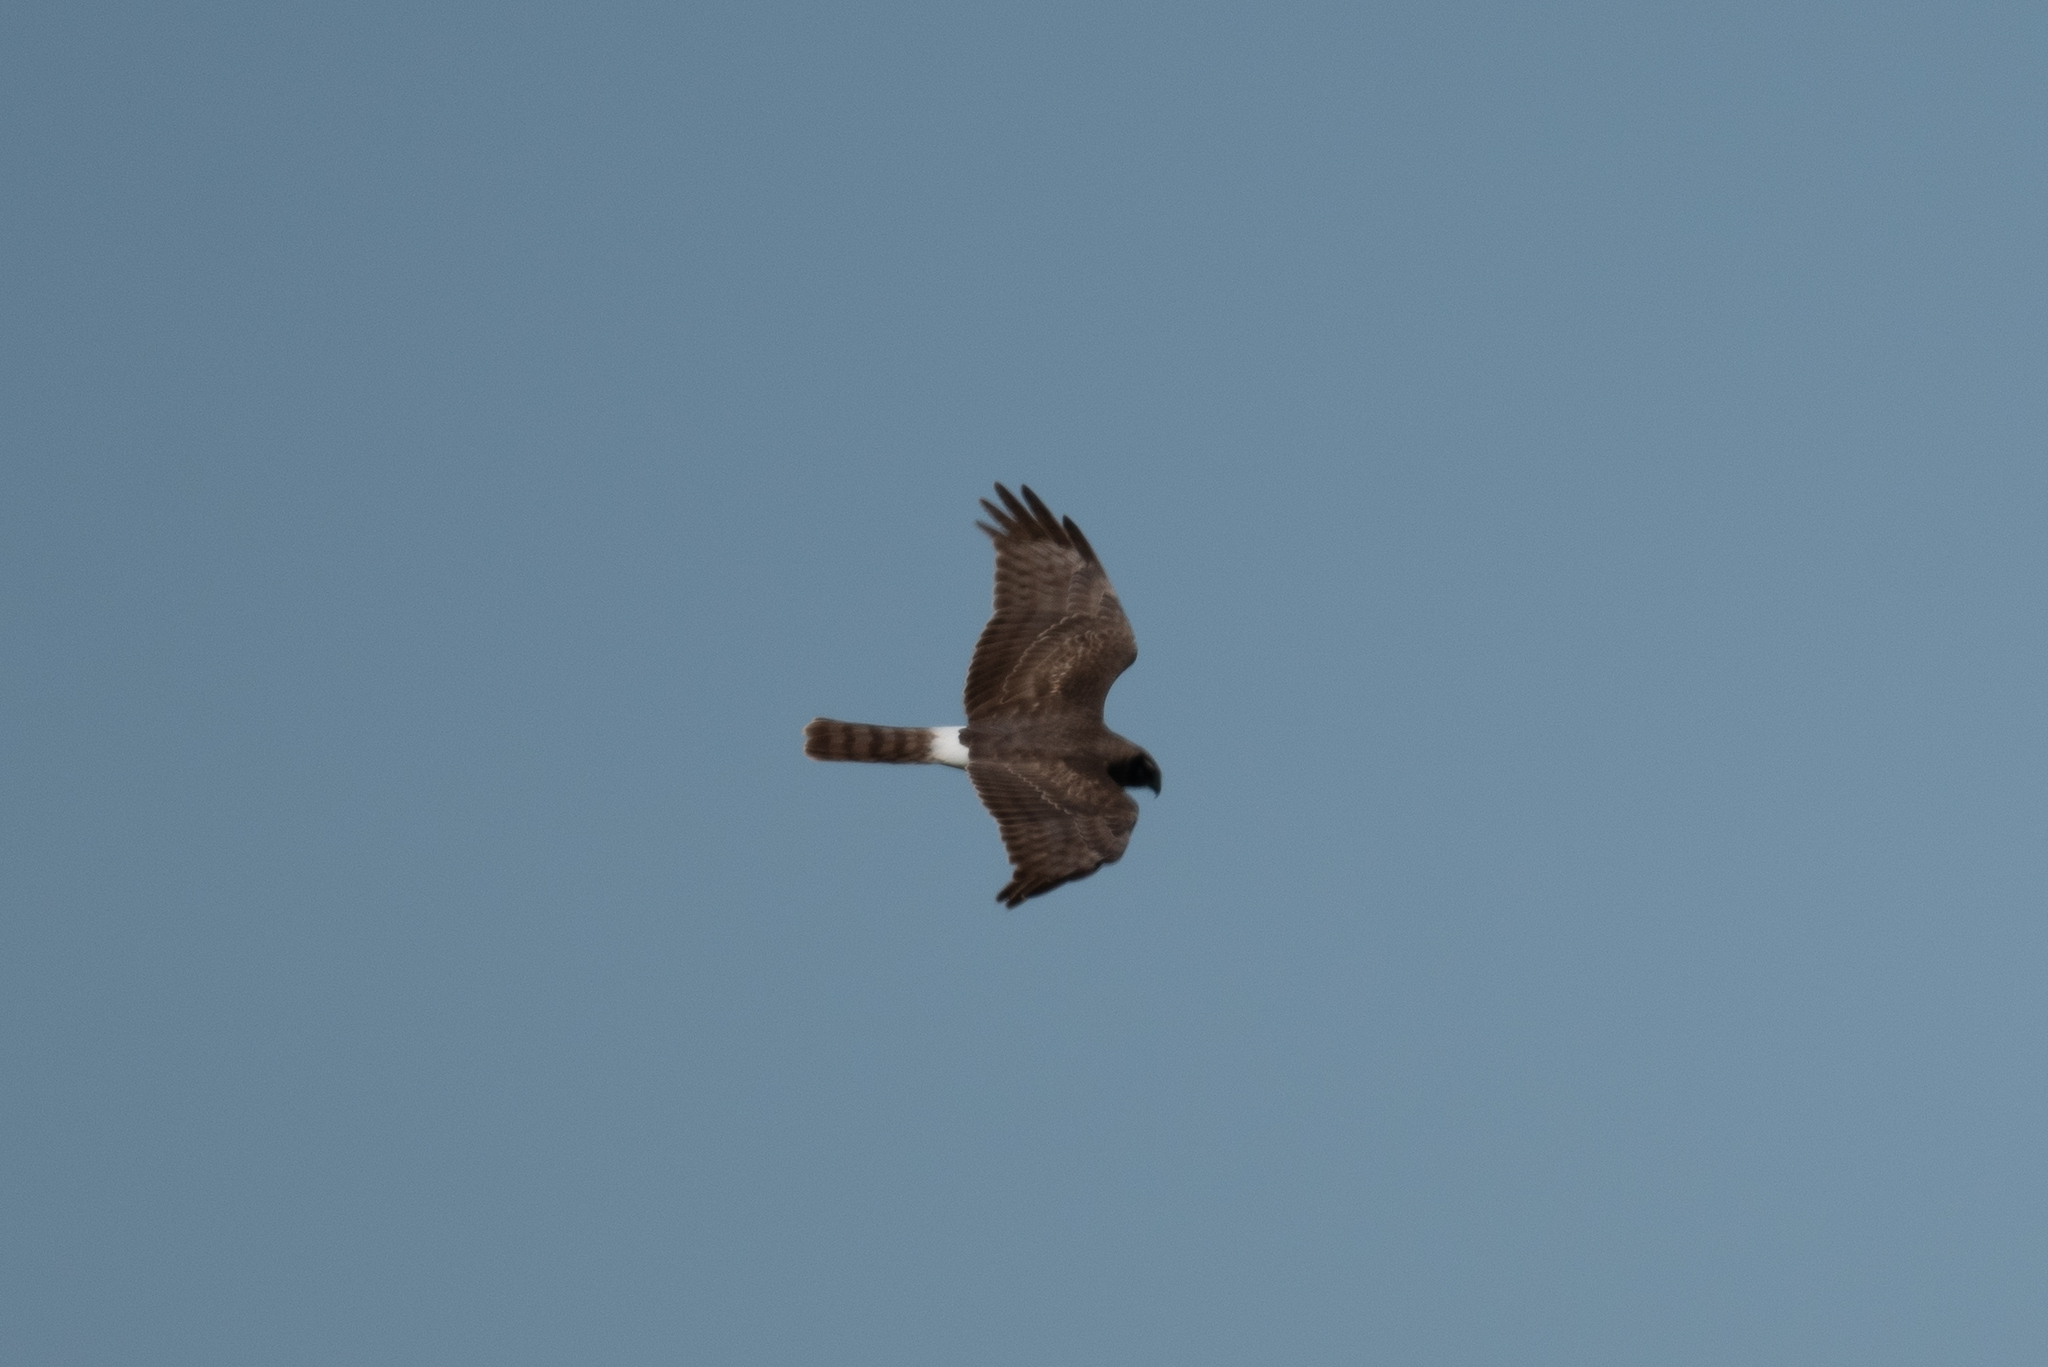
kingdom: Animalia
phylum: Chordata
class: Aves
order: Accipitriformes
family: Accipitridae
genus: Circus
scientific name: Circus cyaneus
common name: Hen harrier
